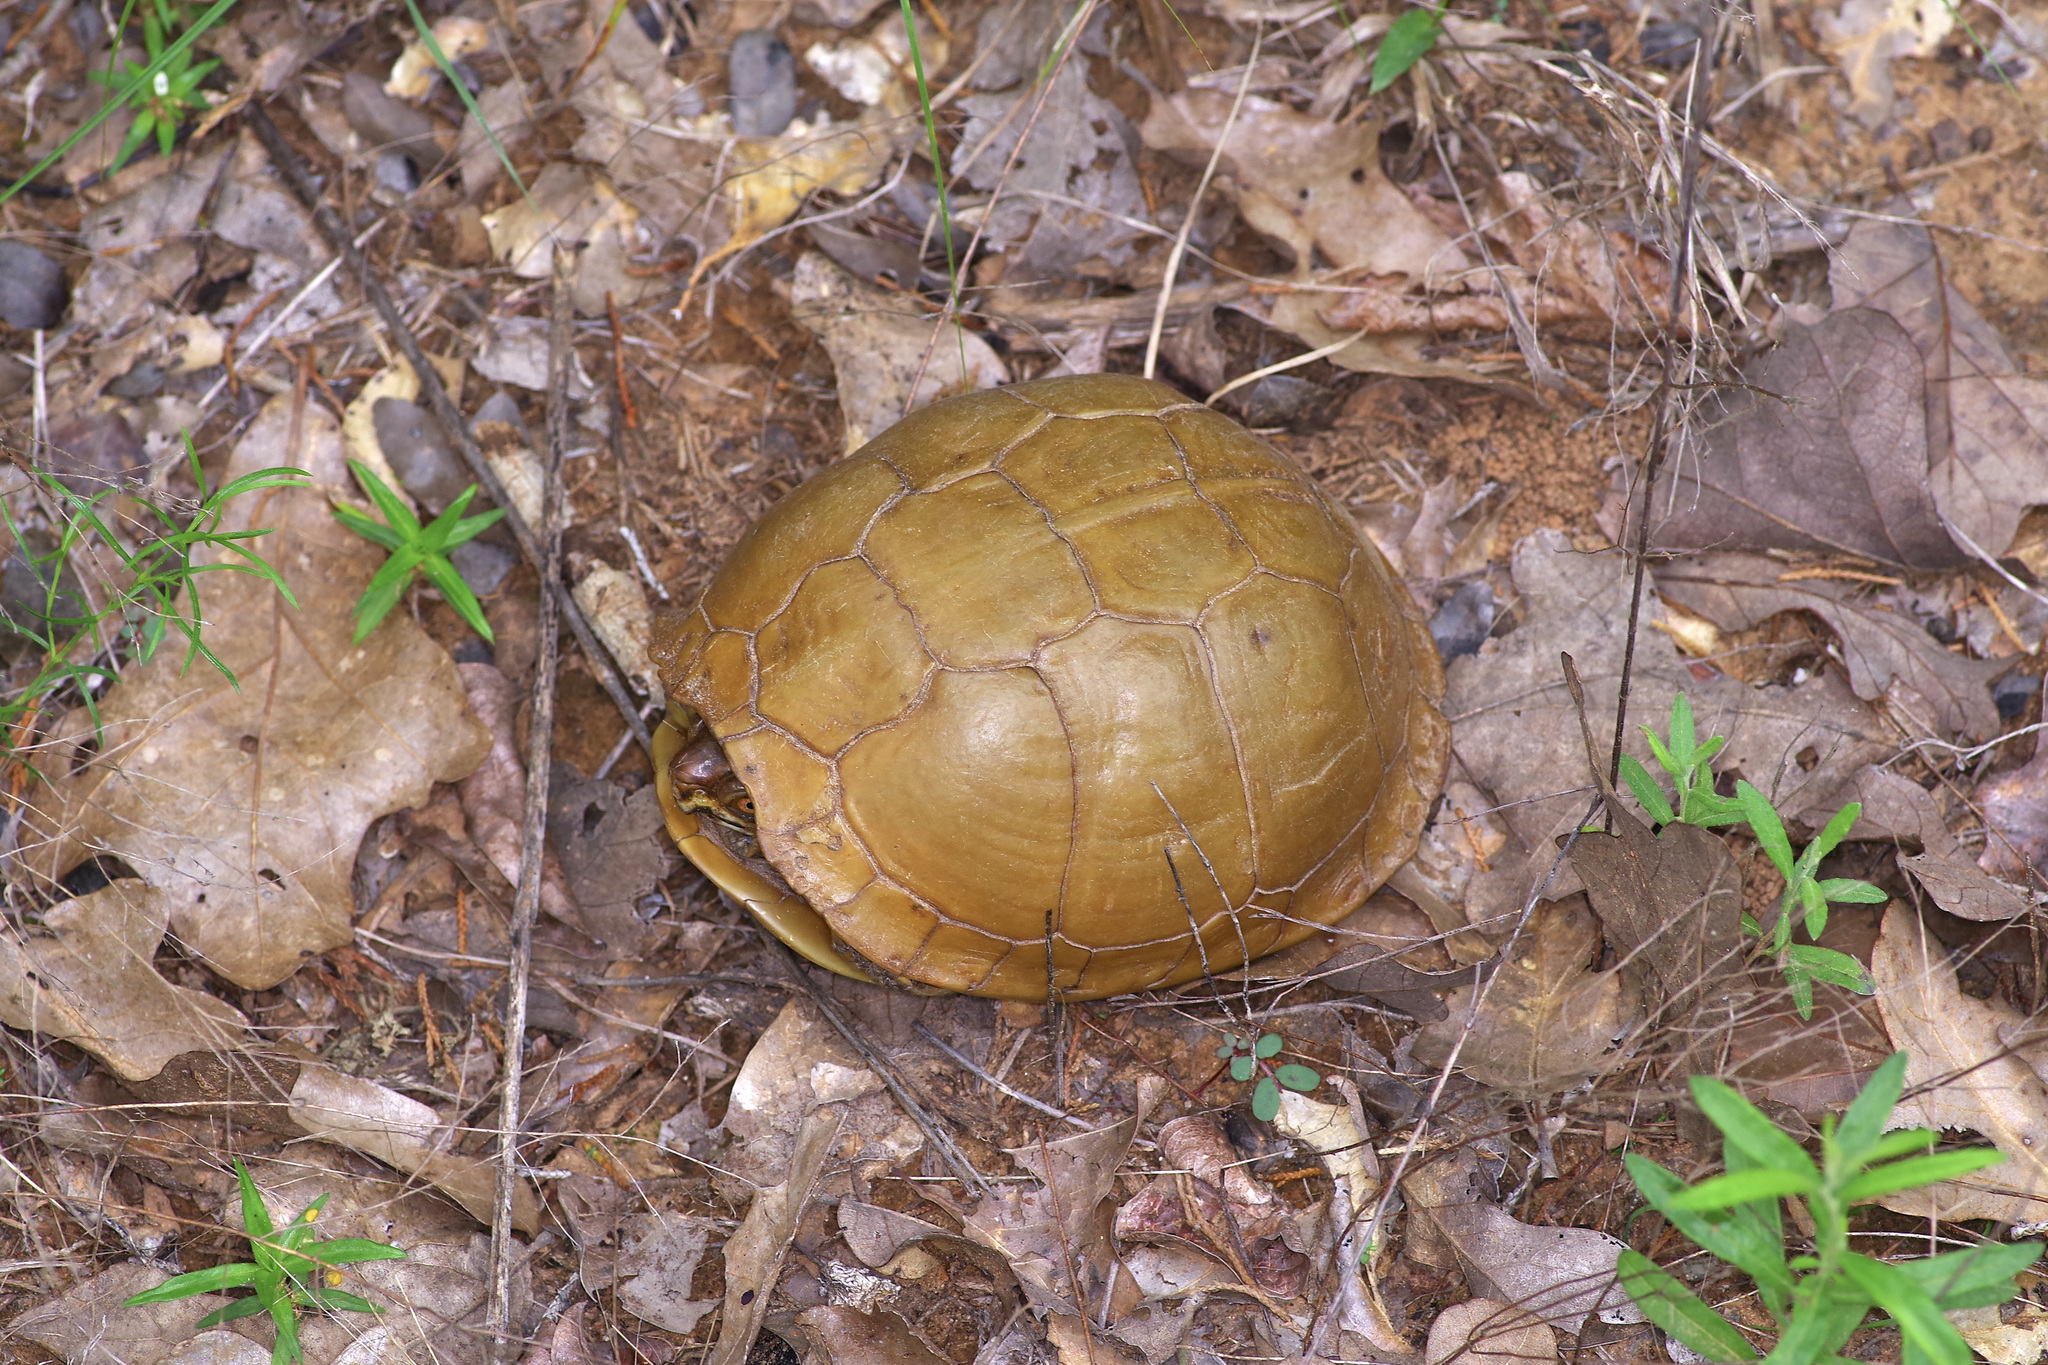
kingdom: Animalia
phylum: Chordata
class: Testudines
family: Emydidae
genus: Terrapene
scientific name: Terrapene carolina
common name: Common box turtle
